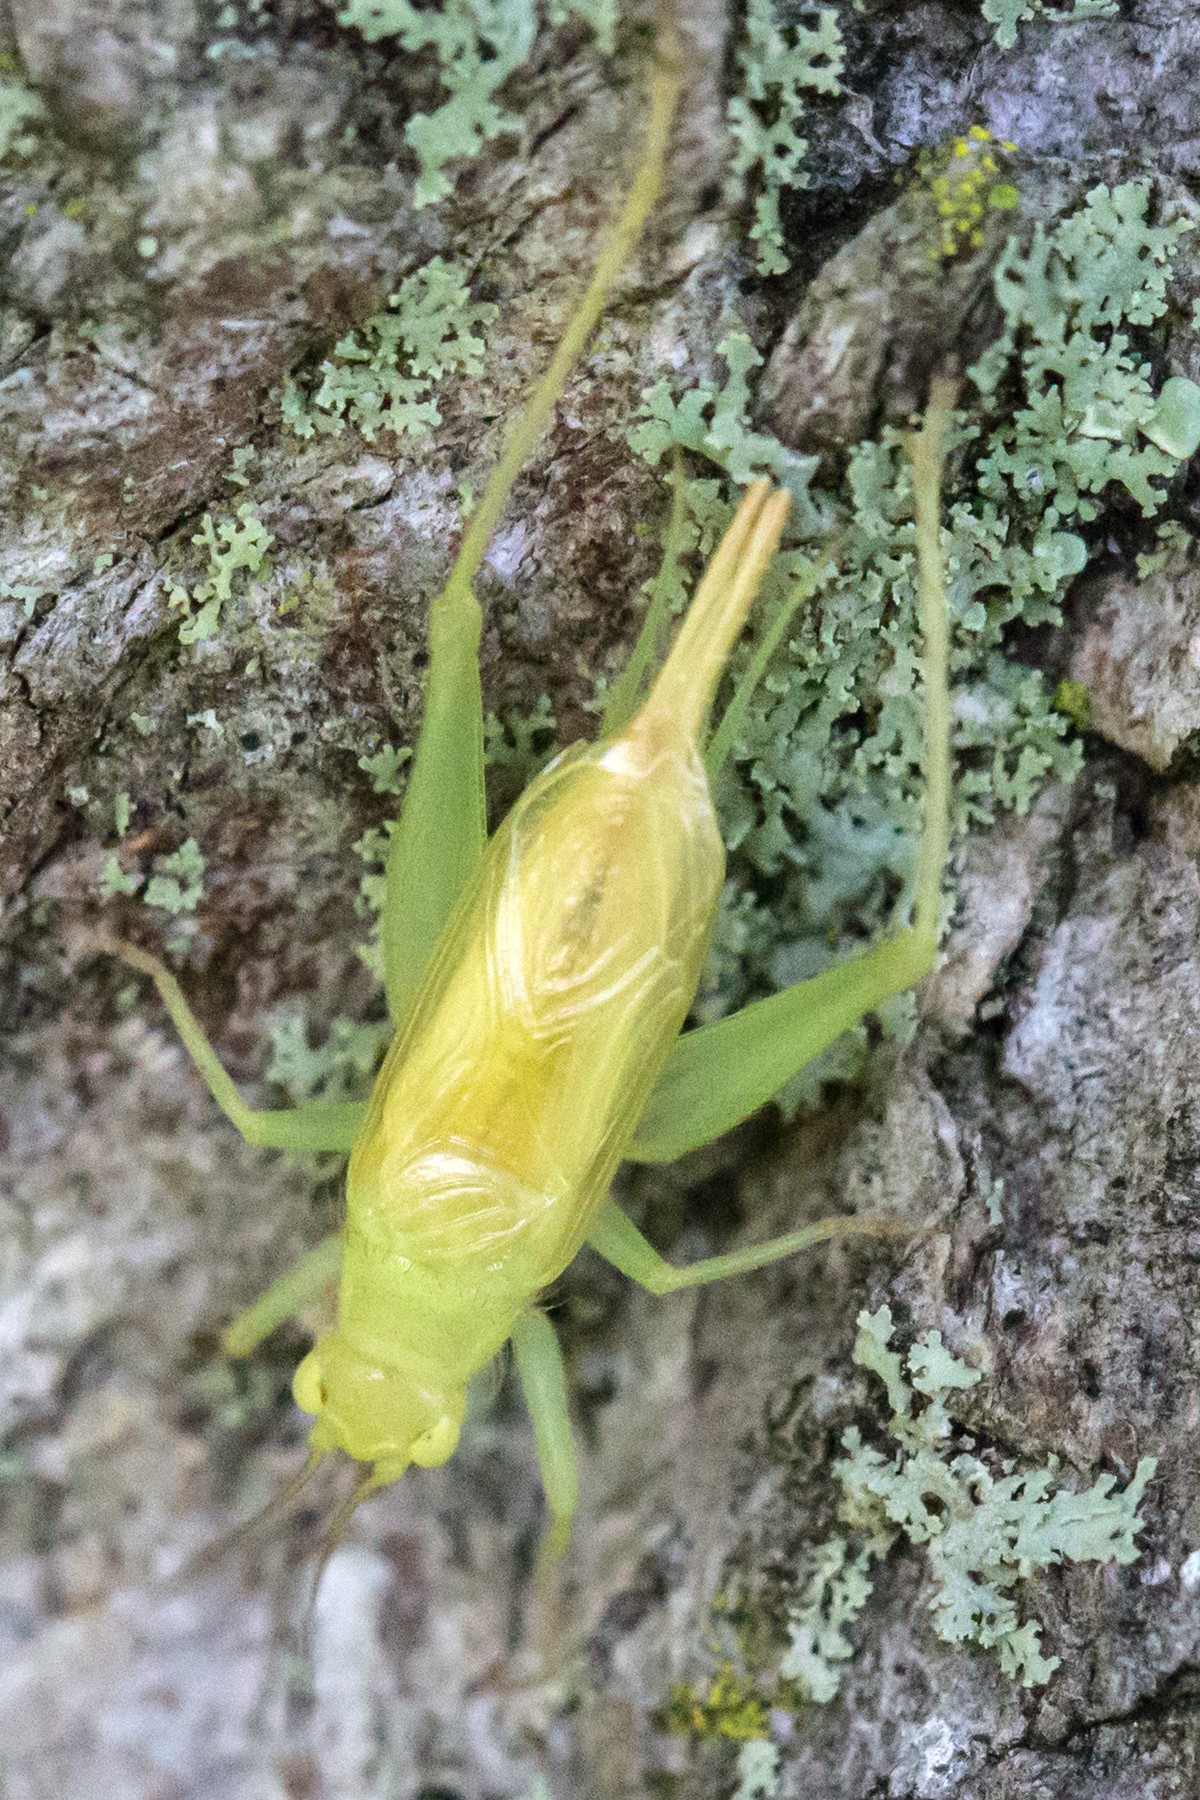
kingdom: Animalia
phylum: Arthropoda
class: Insecta
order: Orthoptera
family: Trigonidiidae
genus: Cyrtoxipha
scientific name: Cyrtoxipha columbiana
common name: Columbian trig
